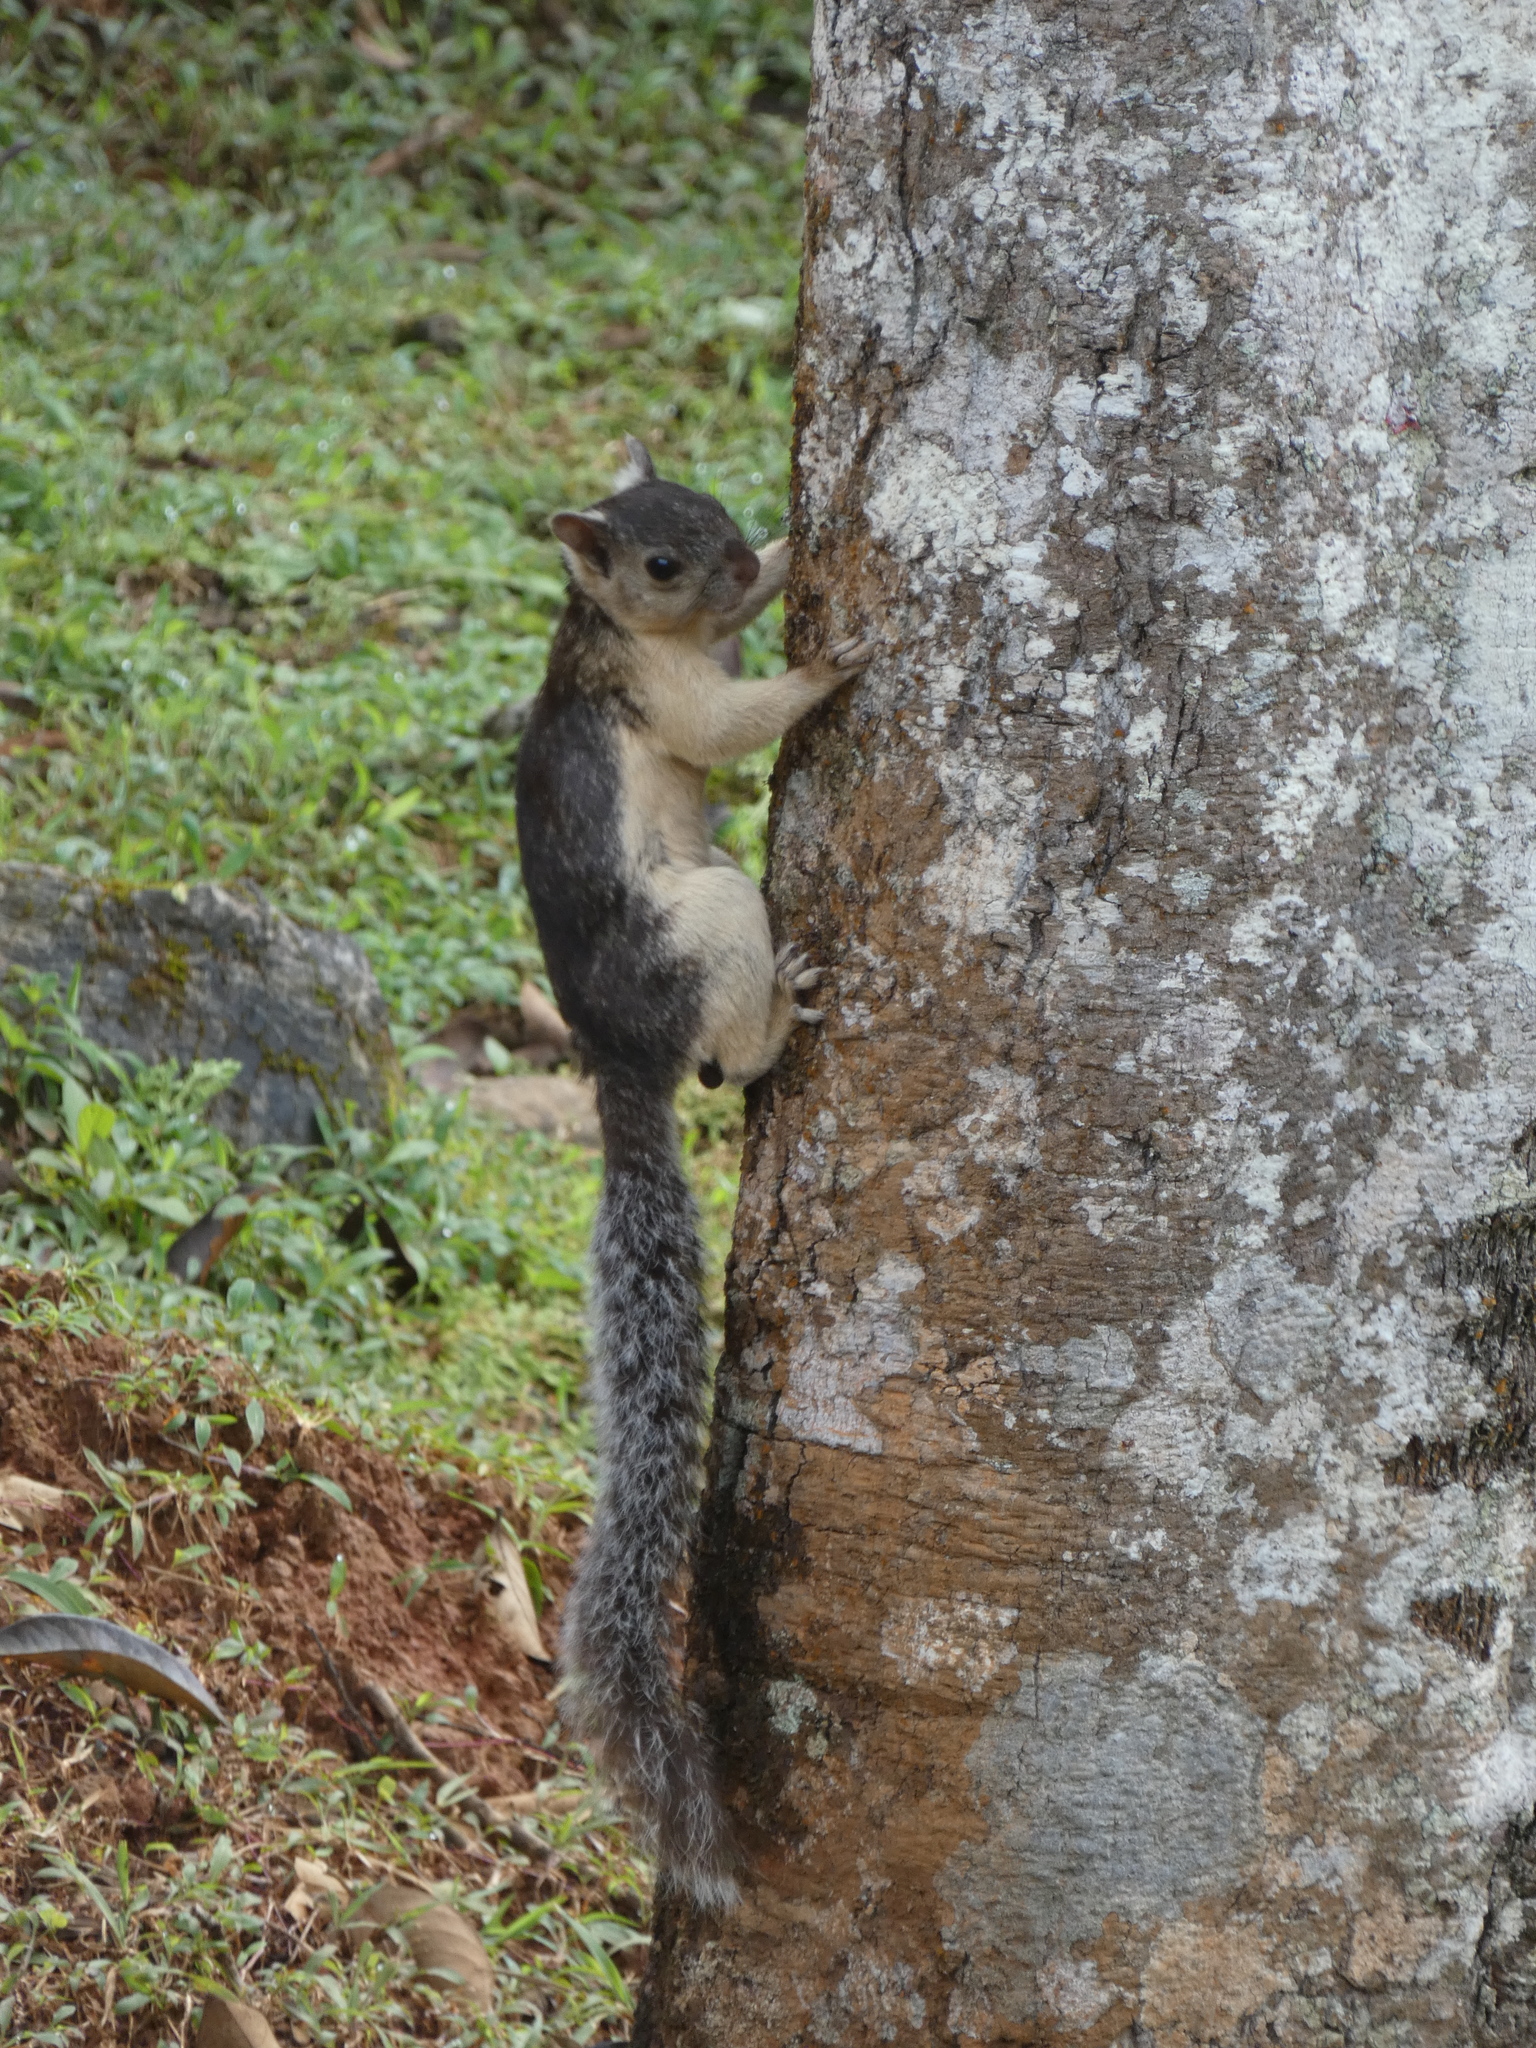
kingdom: Animalia
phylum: Chordata
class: Mammalia
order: Rodentia
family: Sciuridae
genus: Sciurus
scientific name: Sciurus variegatoides
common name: Variegated squirrel
